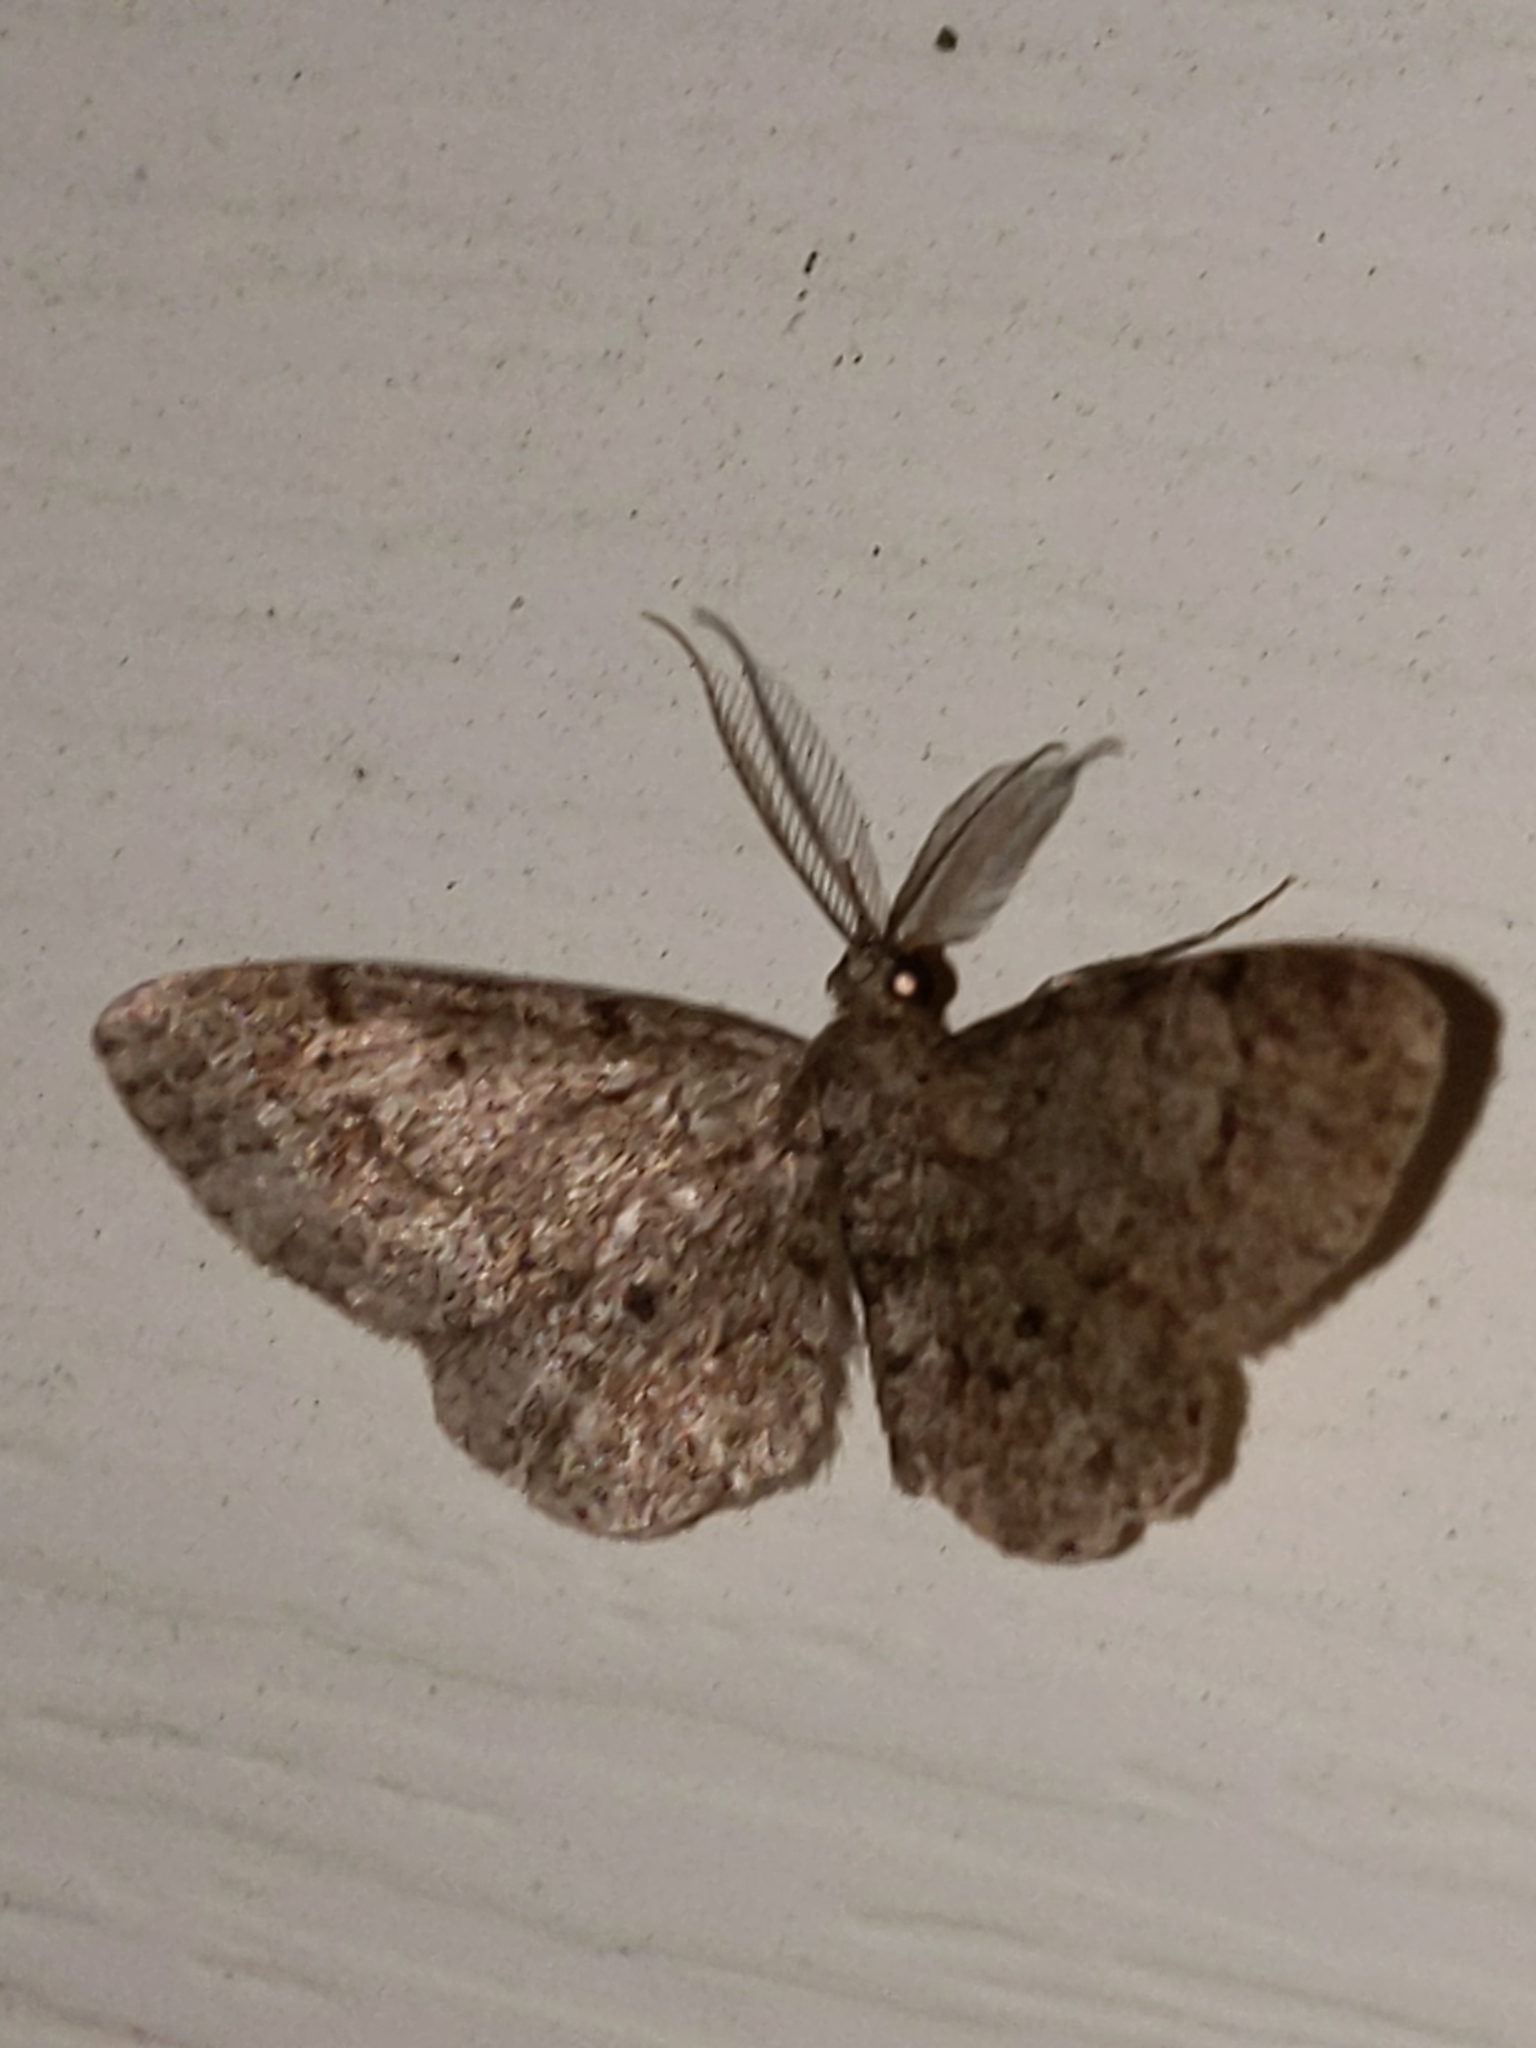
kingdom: Animalia
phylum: Arthropoda
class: Insecta
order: Lepidoptera
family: Geometridae
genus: Glenoides
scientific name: Glenoides texanaria
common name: Texas gray
